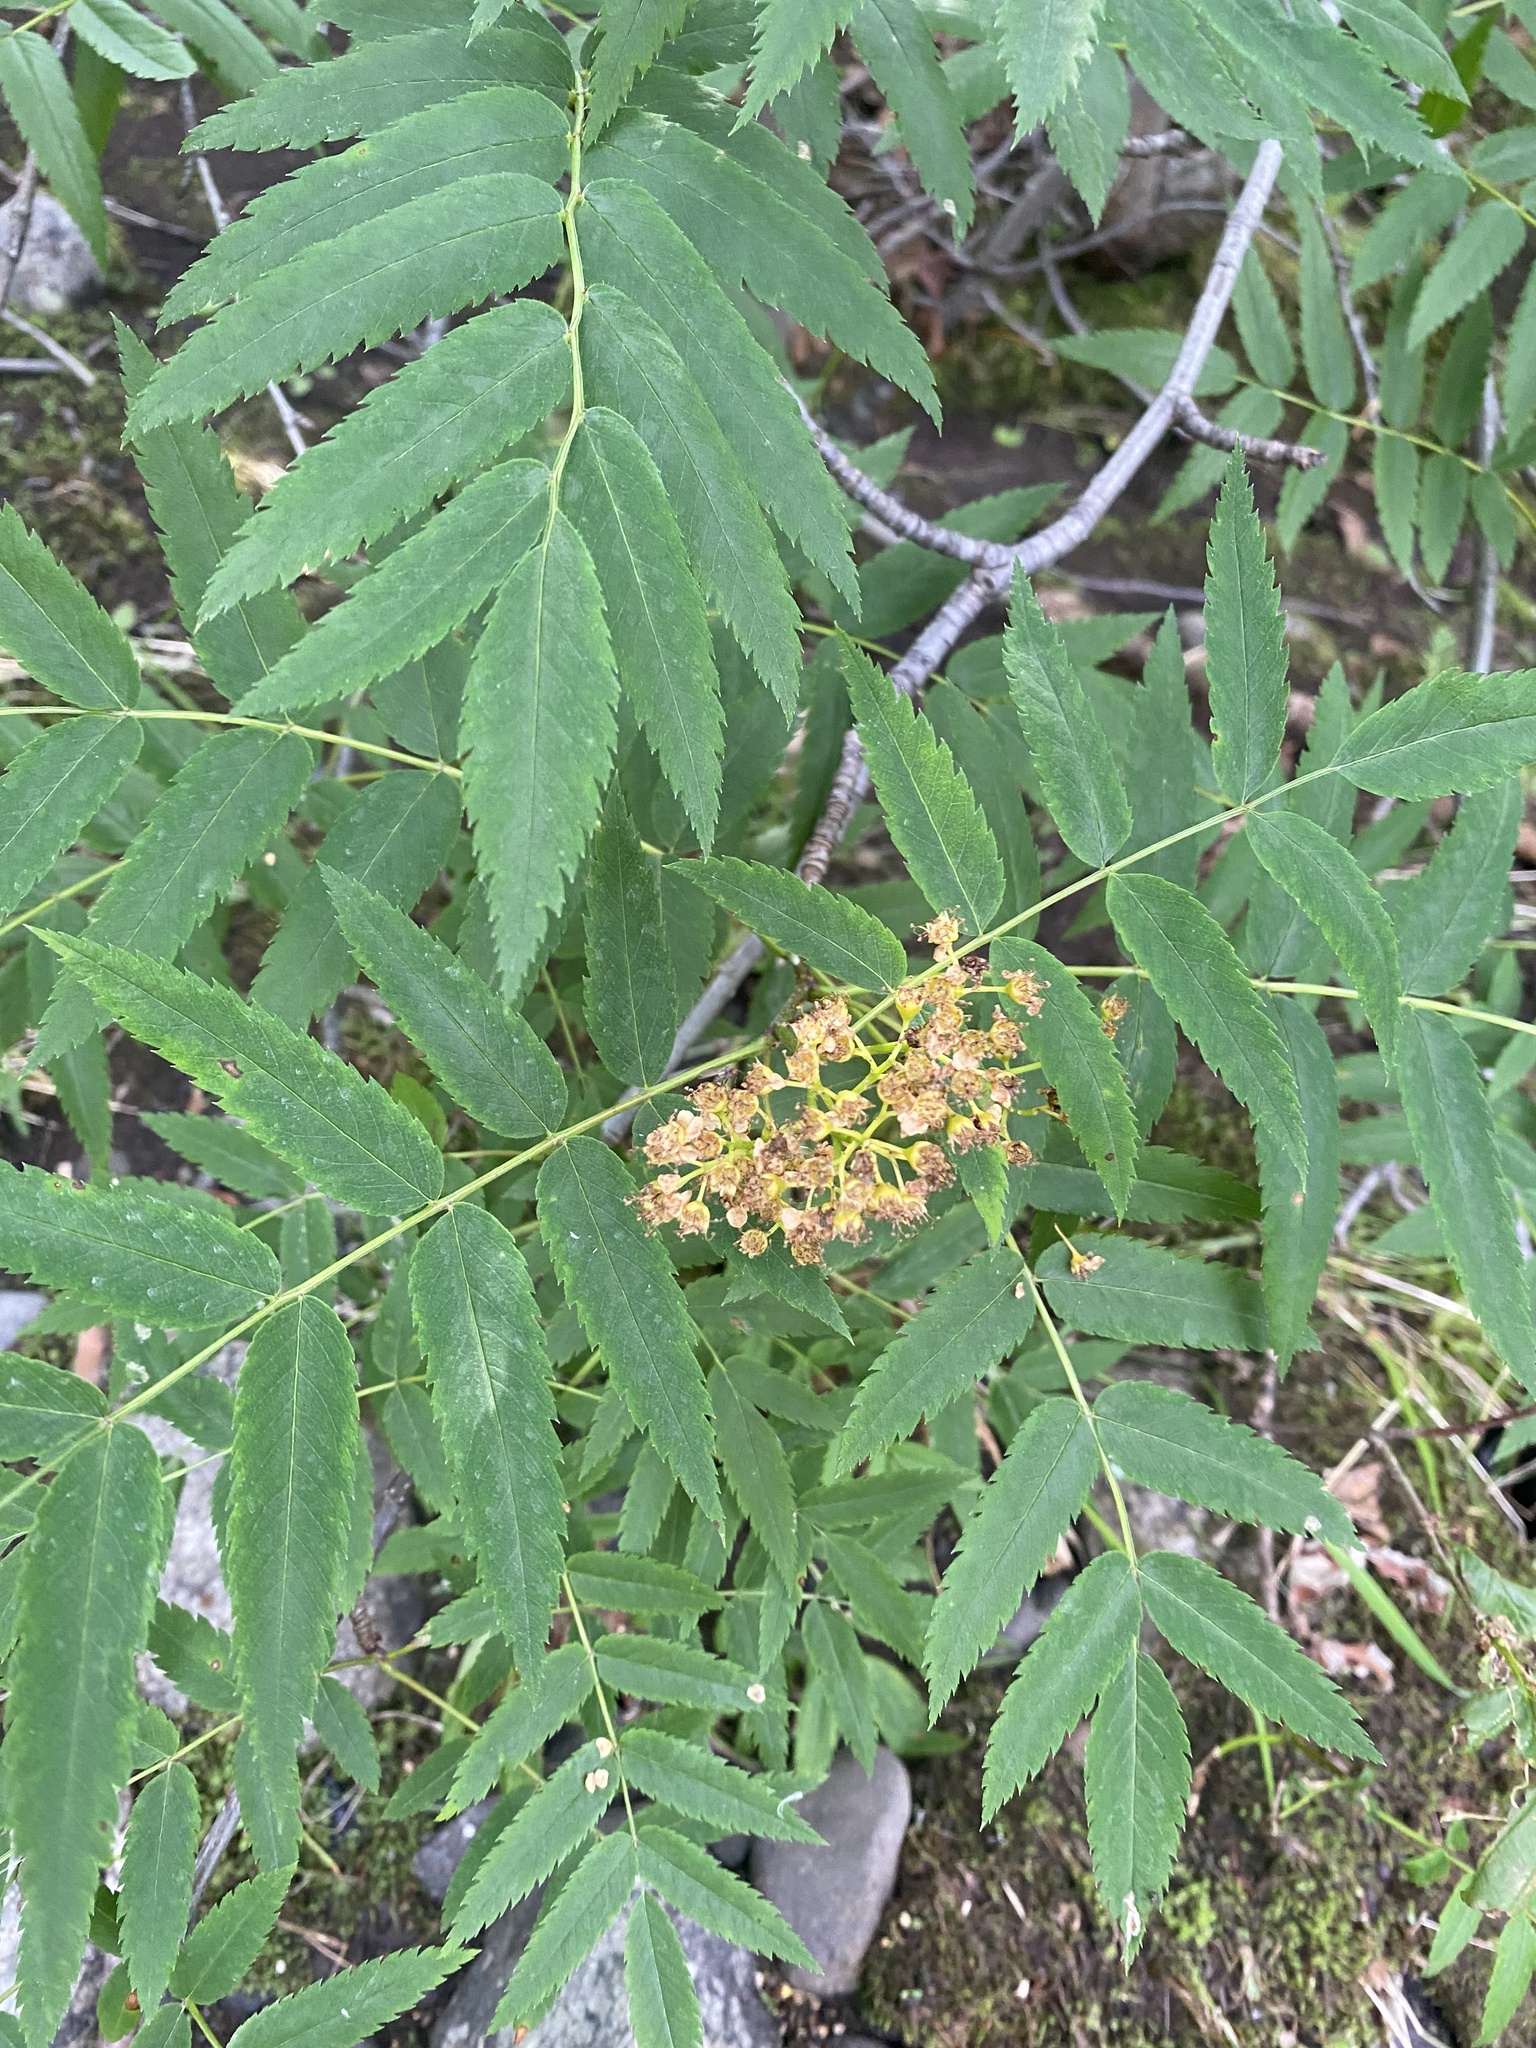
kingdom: Plantae
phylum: Tracheophyta
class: Magnoliopsida
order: Rosales
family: Rosaceae
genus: Sorbus
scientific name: Sorbus aucuparia
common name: Rowan
